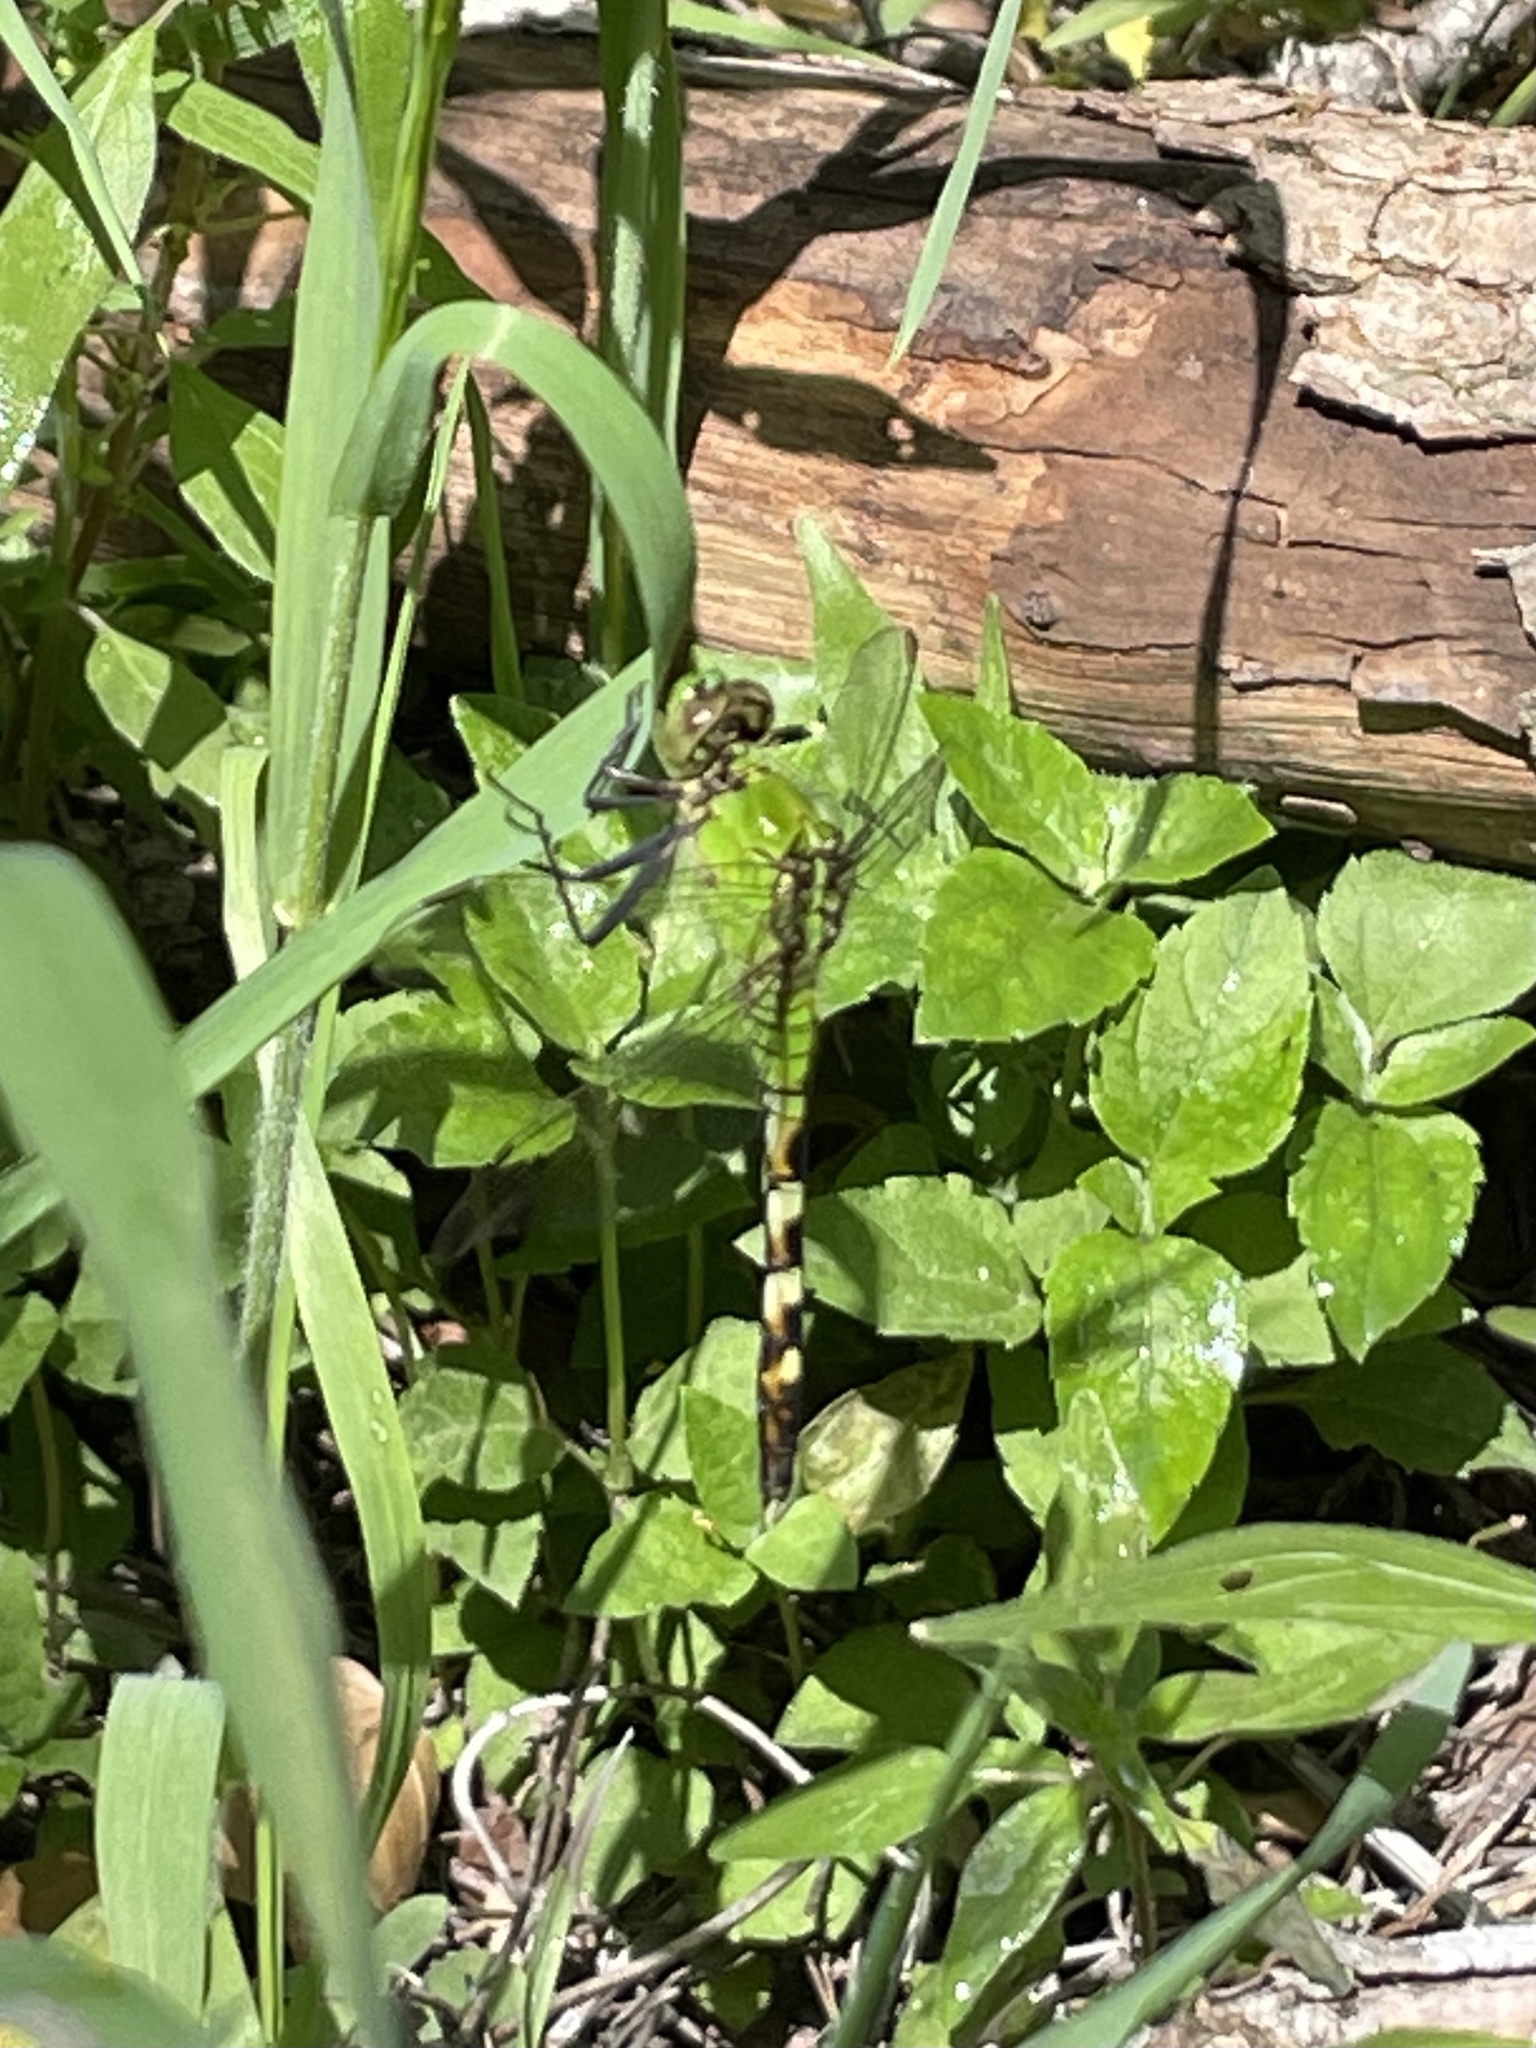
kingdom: Animalia
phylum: Arthropoda
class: Insecta
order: Odonata
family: Libellulidae
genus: Erythemis
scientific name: Erythemis simplicicollis
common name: Eastern pondhawk
